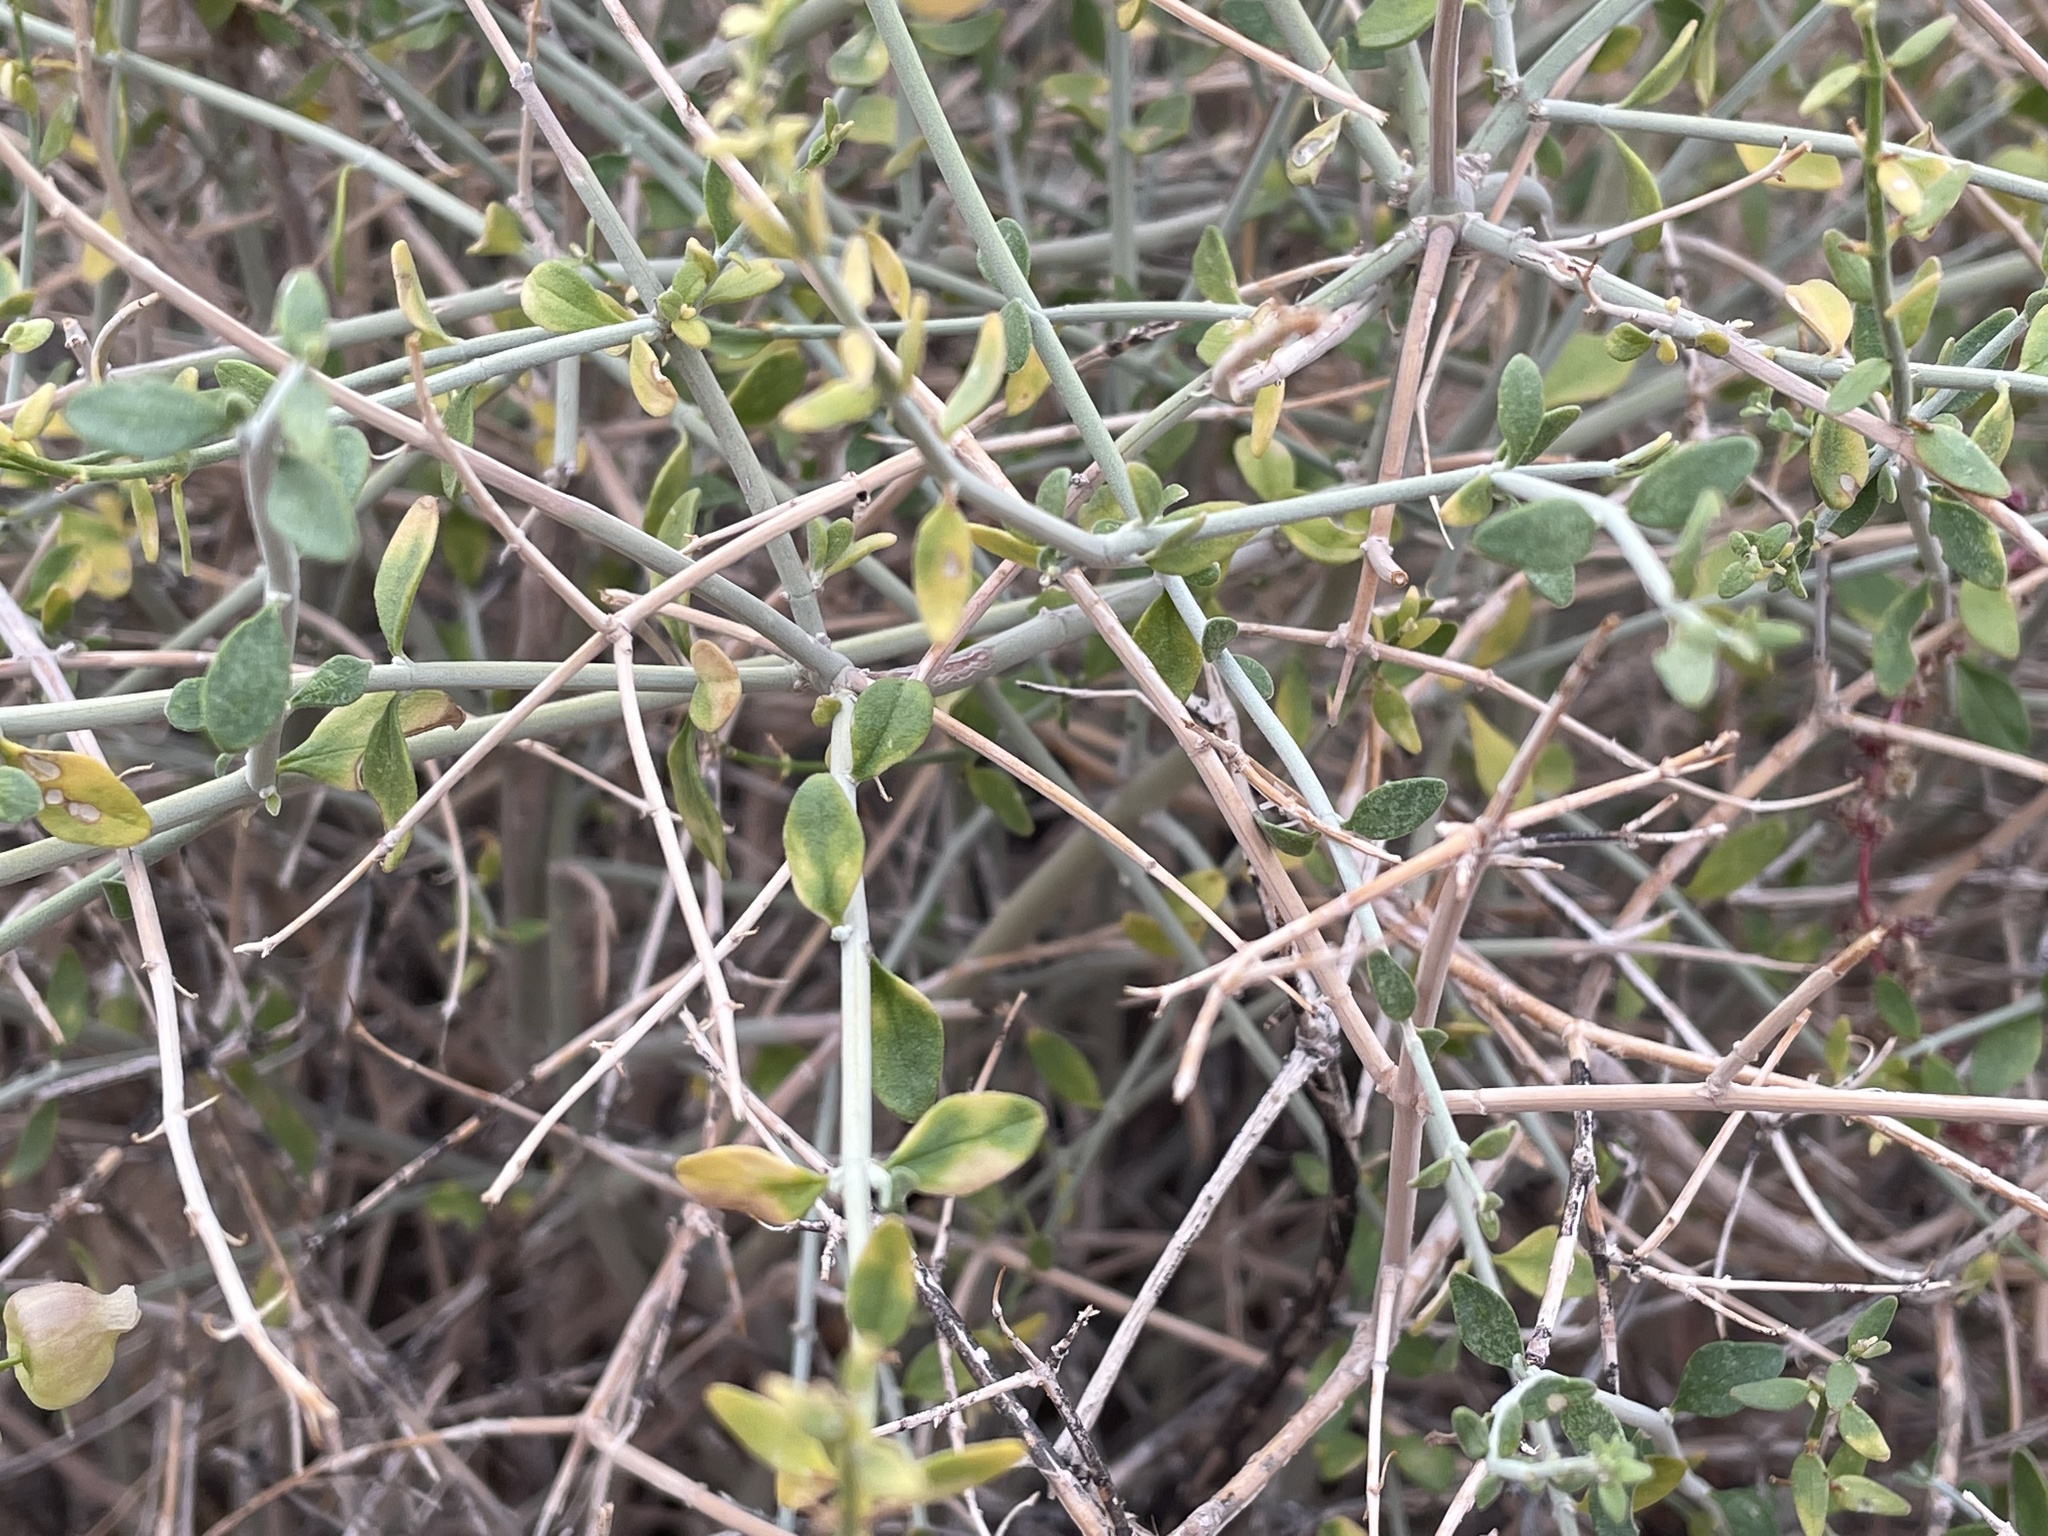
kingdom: Plantae
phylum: Tracheophyta
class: Magnoliopsida
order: Lamiales
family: Lamiaceae
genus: Scutellaria
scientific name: Scutellaria mexicana
